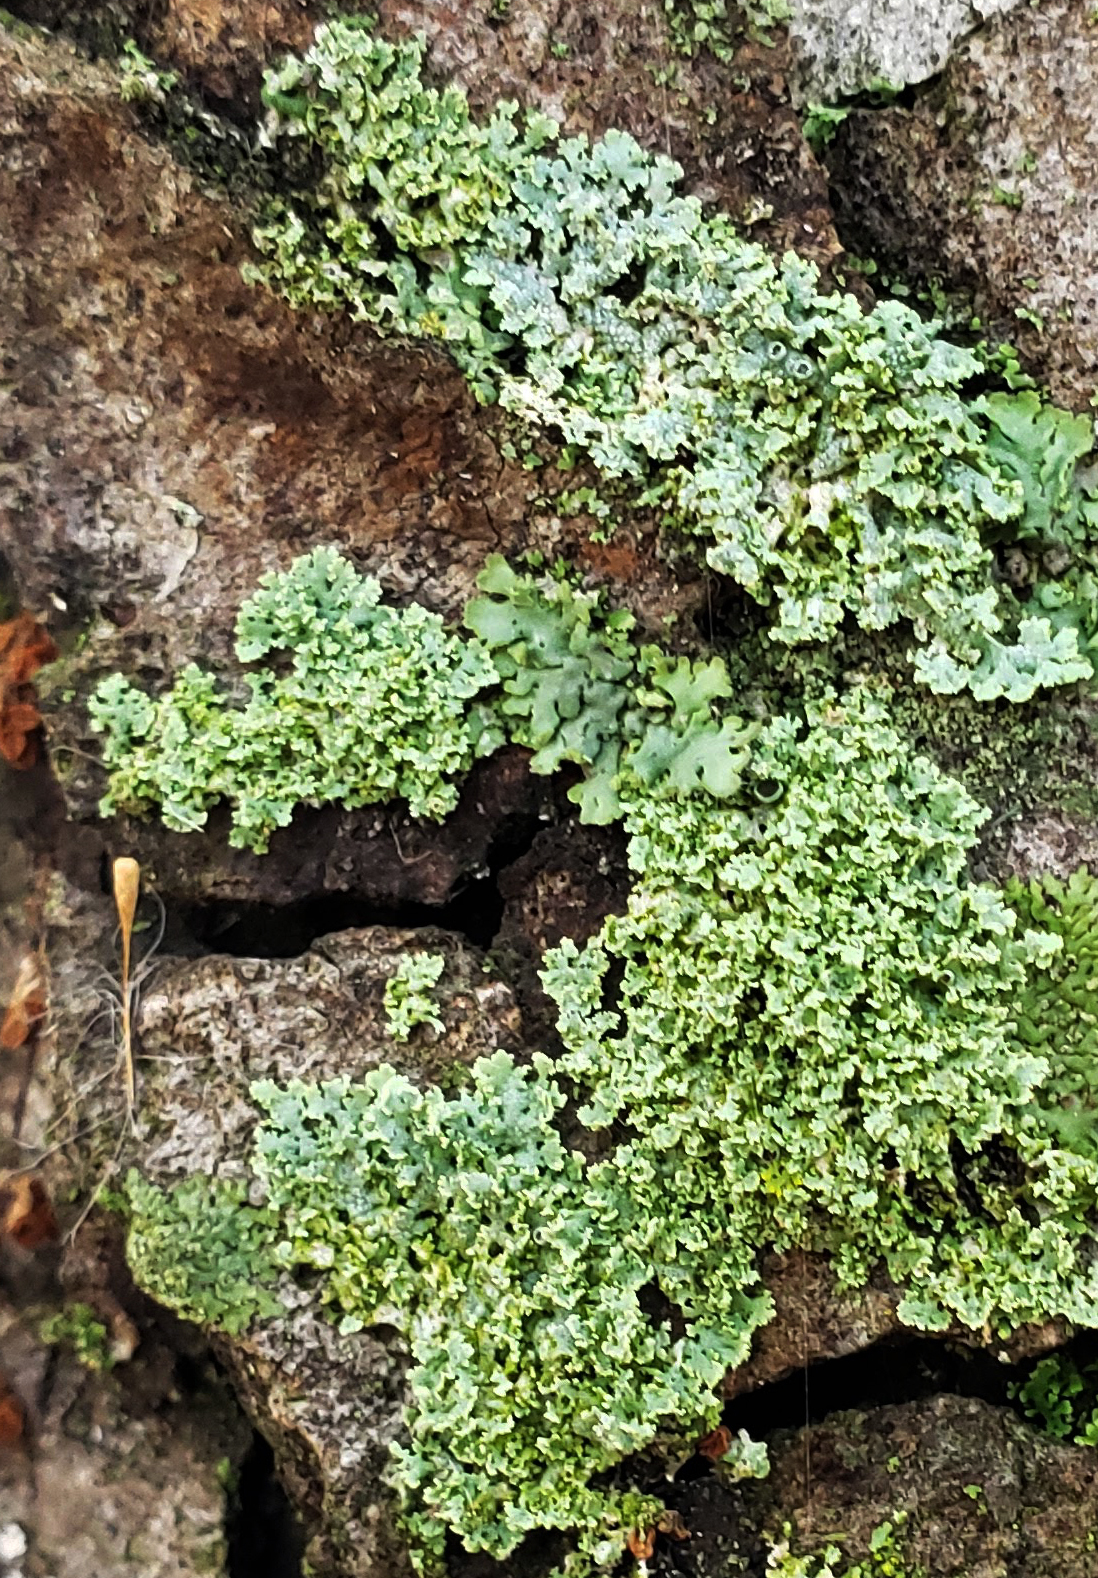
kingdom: Fungi
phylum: Ascomycota
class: Lecanoromycetes
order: Caliciales
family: Physciaceae
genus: Physcia
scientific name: Physcia millegrana
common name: Rosette lichen
